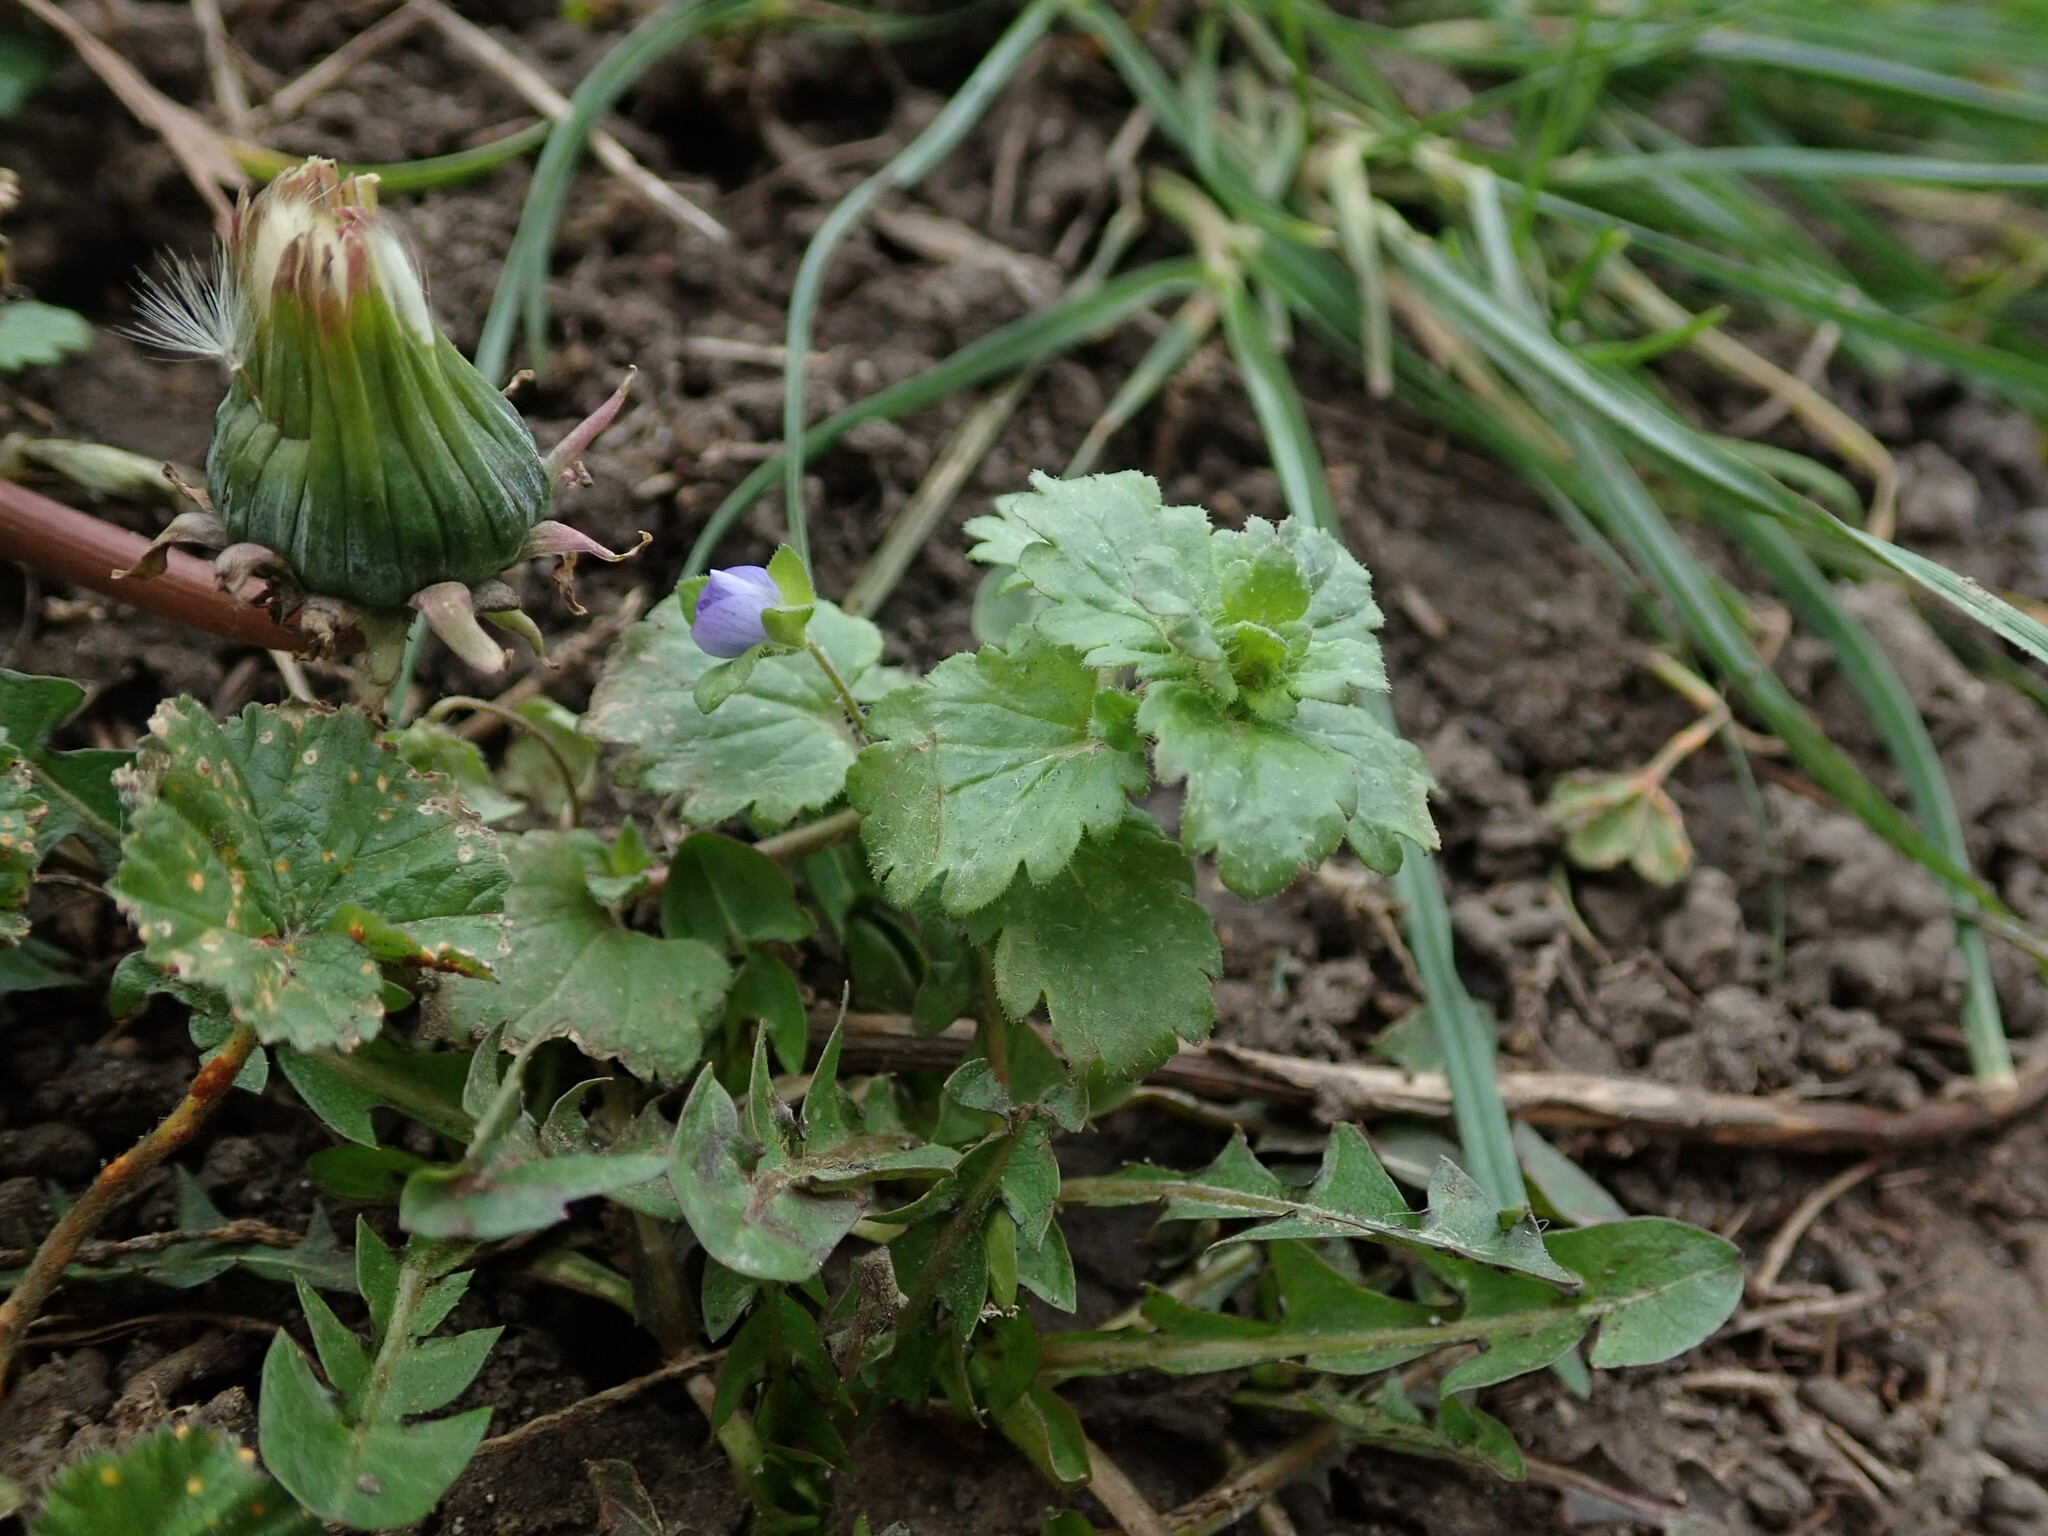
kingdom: Plantae
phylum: Tracheophyta
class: Magnoliopsida
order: Lamiales
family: Plantaginaceae
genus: Veronica
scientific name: Veronica persica
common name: Common field-speedwell
